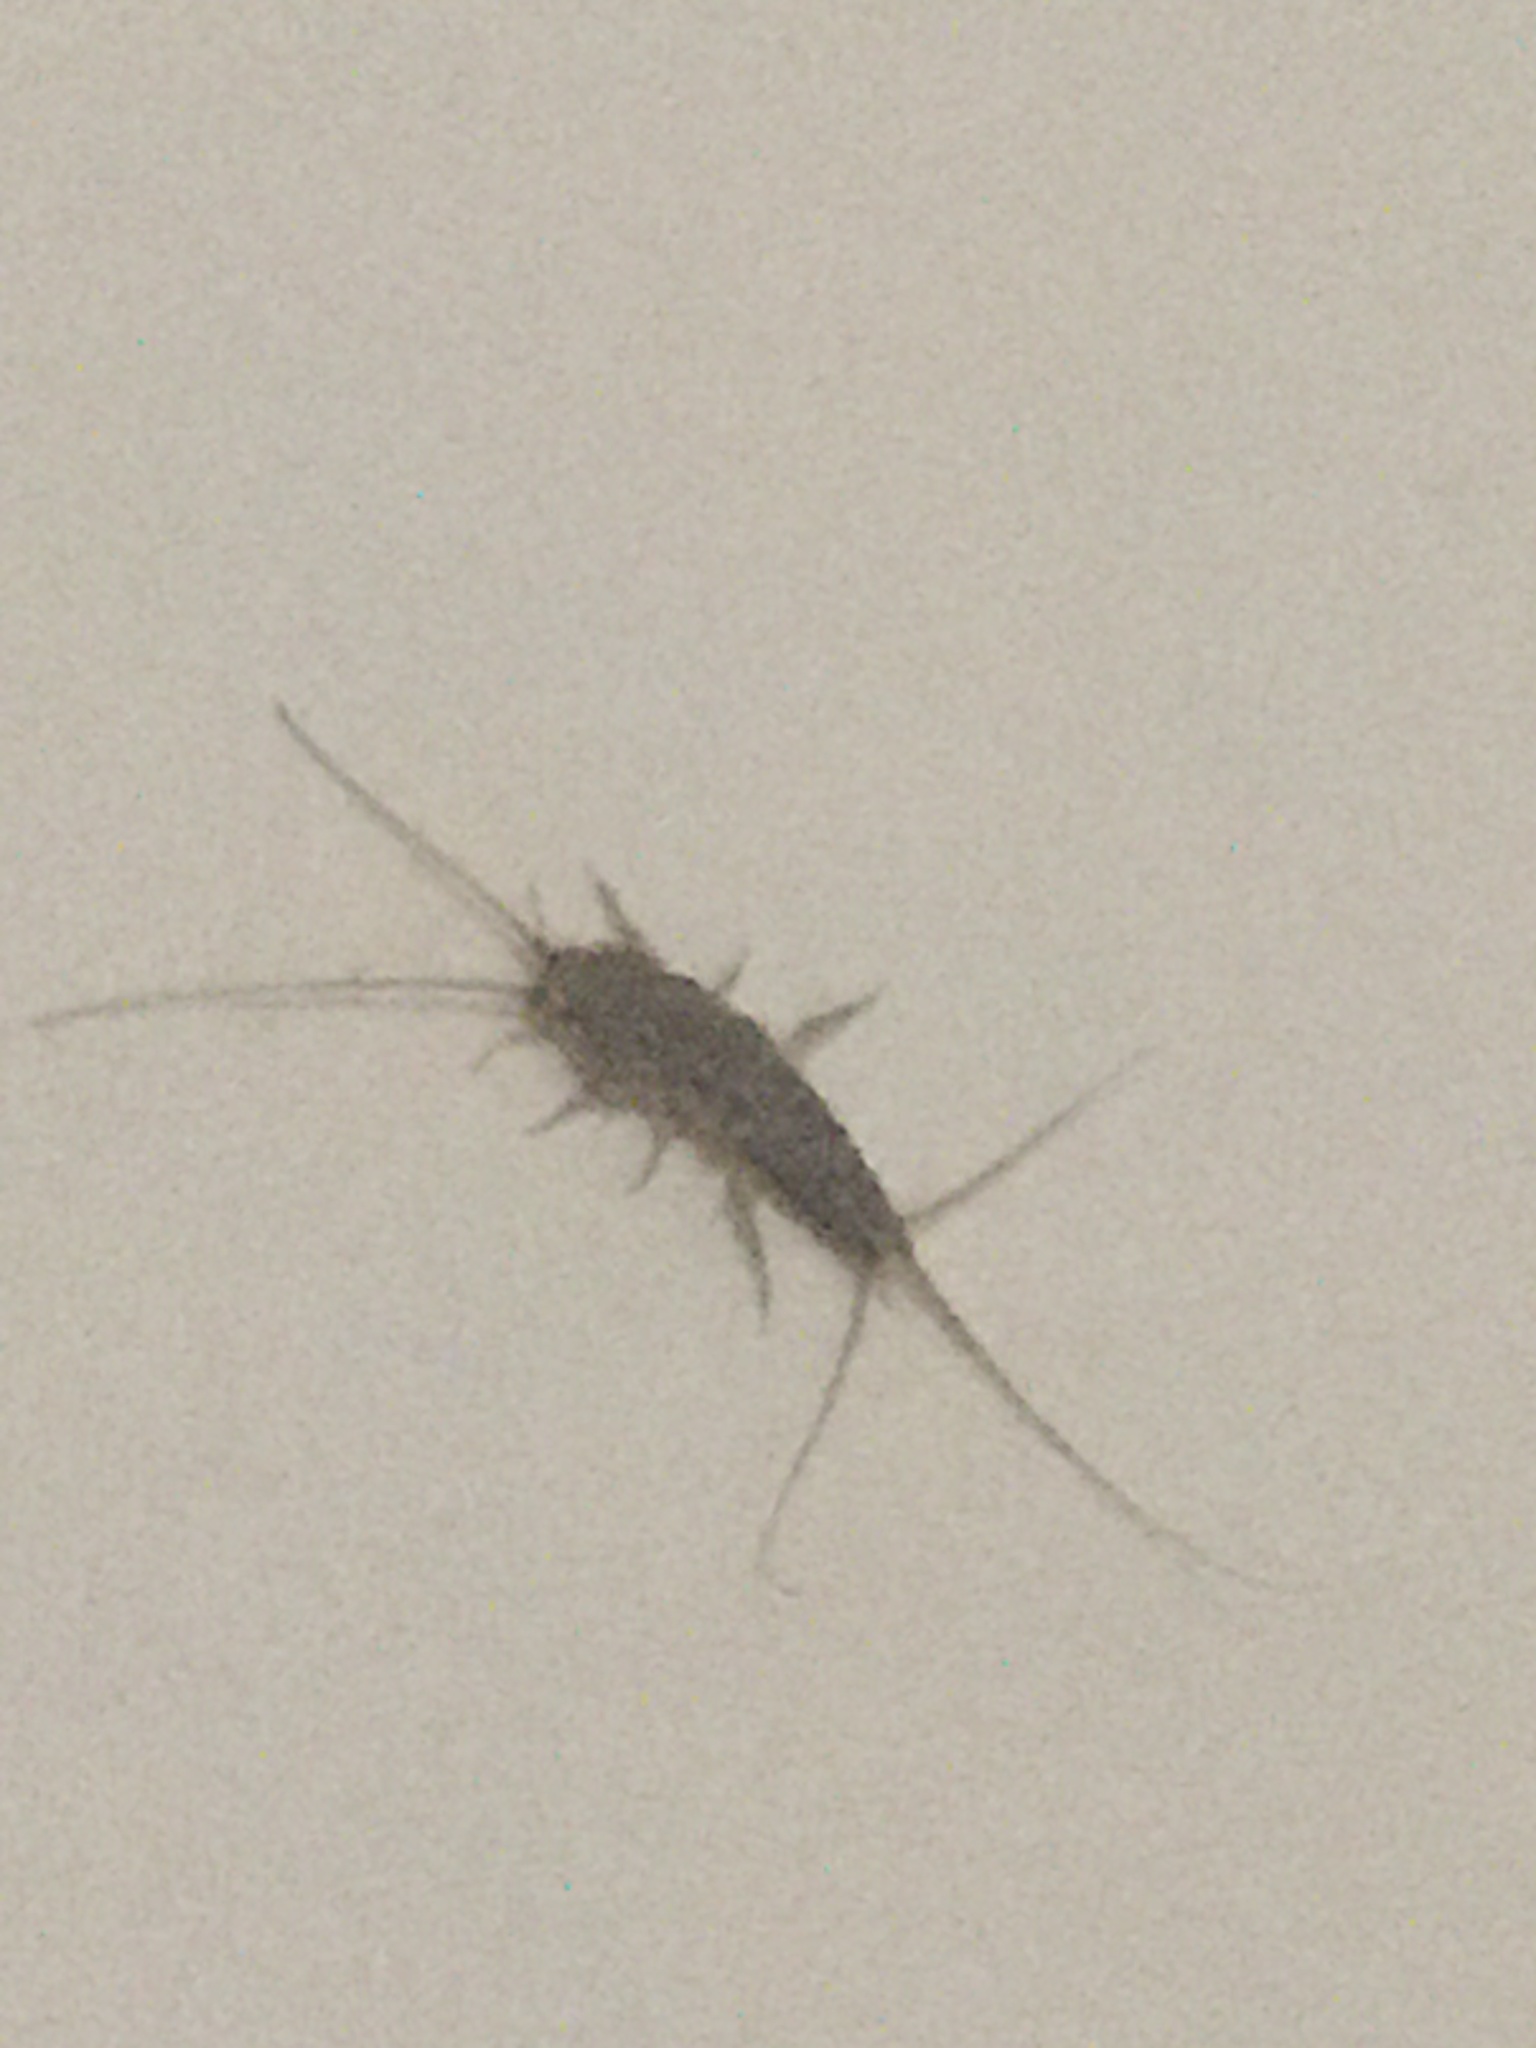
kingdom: Animalia
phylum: Arthropoda
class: Insecta
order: Zygentoma
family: Lepismatidae
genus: Ctenolepisma
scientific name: Ctenolepisma lineata
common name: Four-lined silverfish
